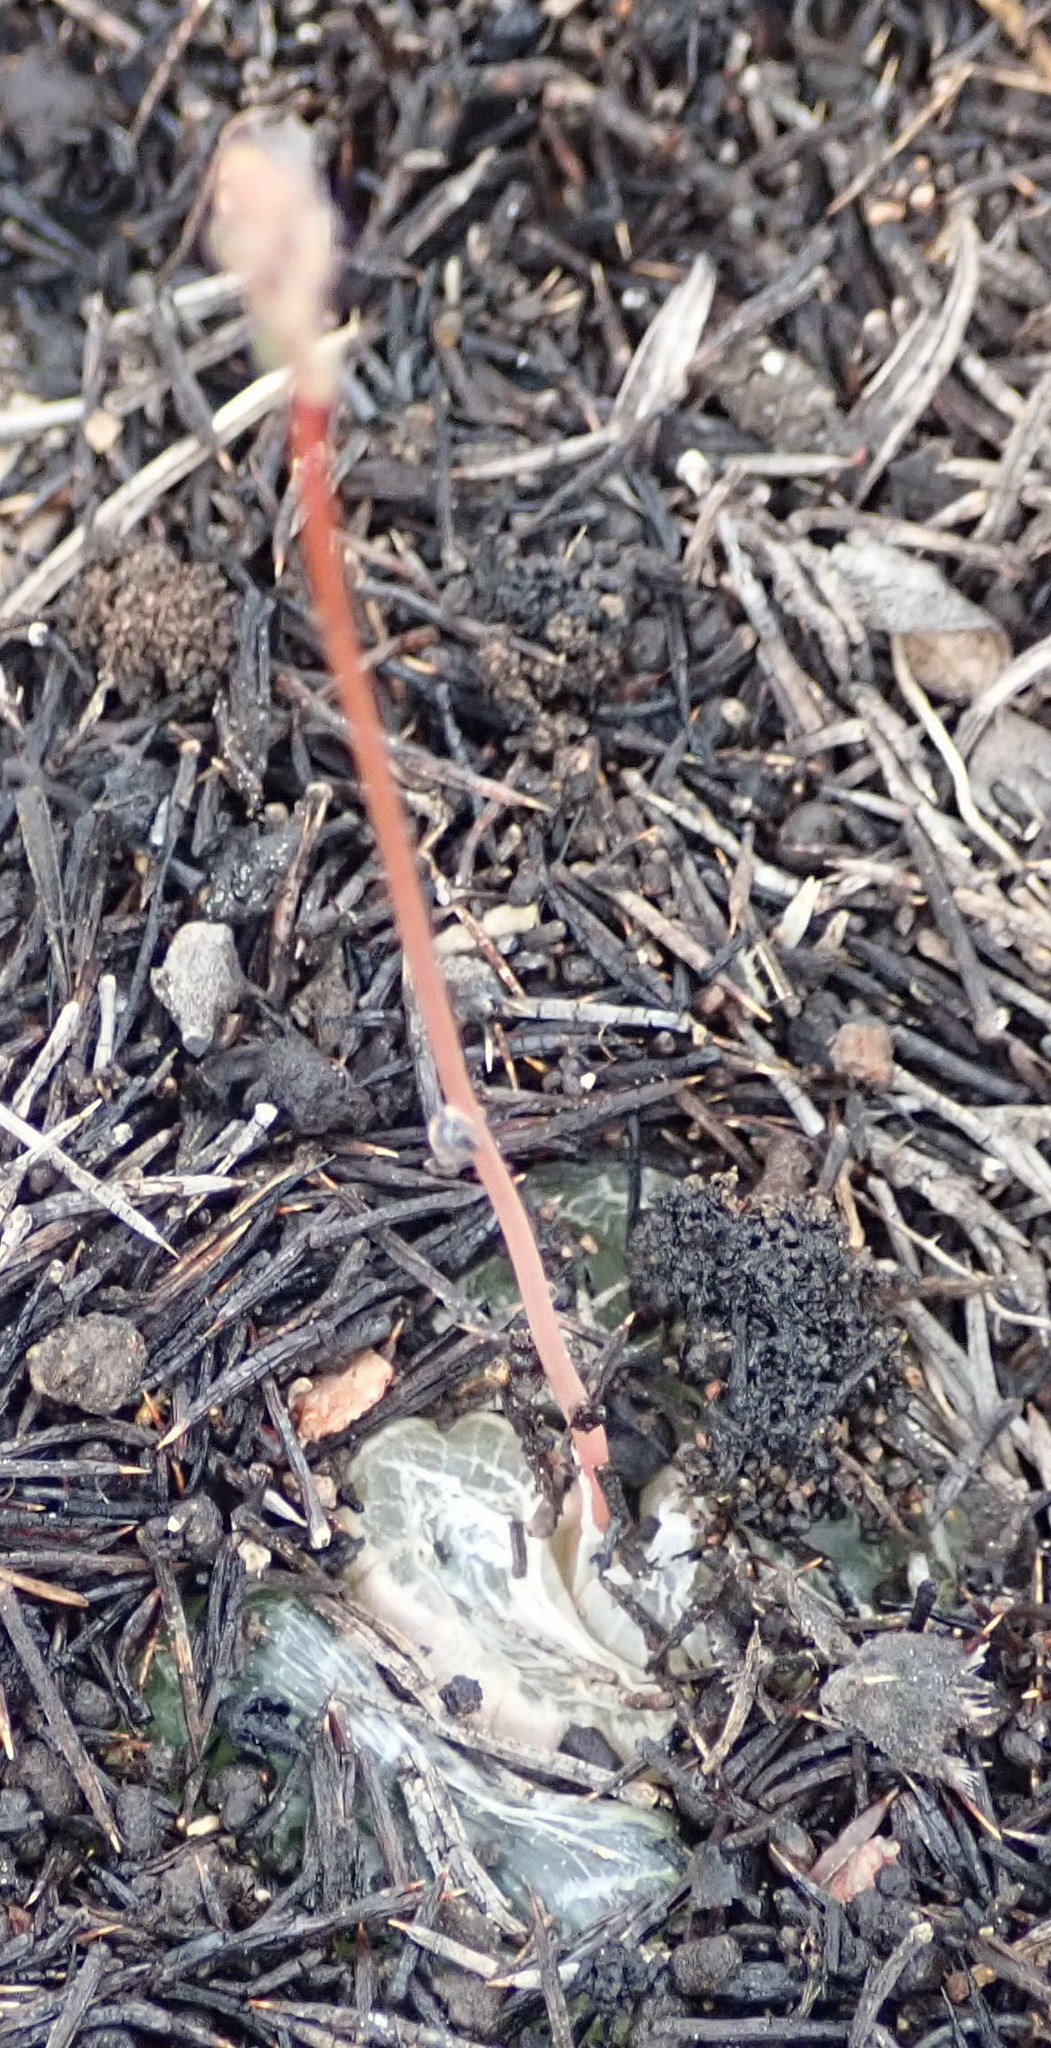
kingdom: Plantae
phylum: Tracheophyta
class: Liliopsida
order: Asparagales
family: Asphodelaceae
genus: Bulbine
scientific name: Bulbine mesembryanthoides
